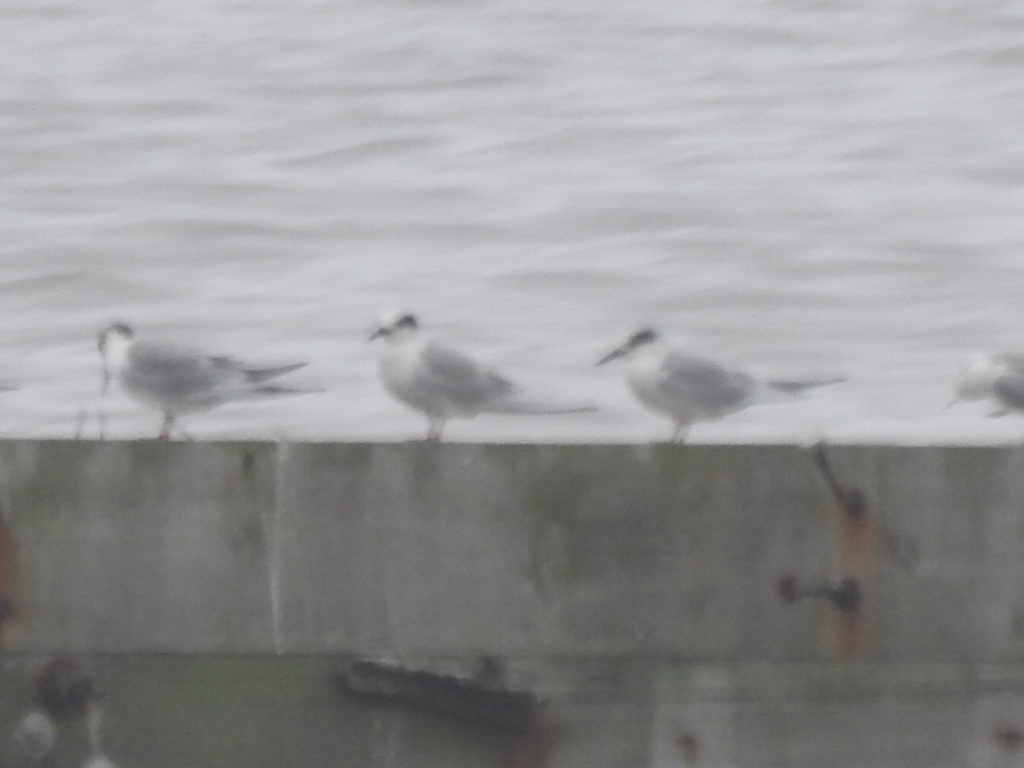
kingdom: Animalia
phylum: Chordata
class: Aves
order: Charadriiformes
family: Laridae
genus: Sterna
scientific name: Sterna forsteri
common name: Forster's tern
